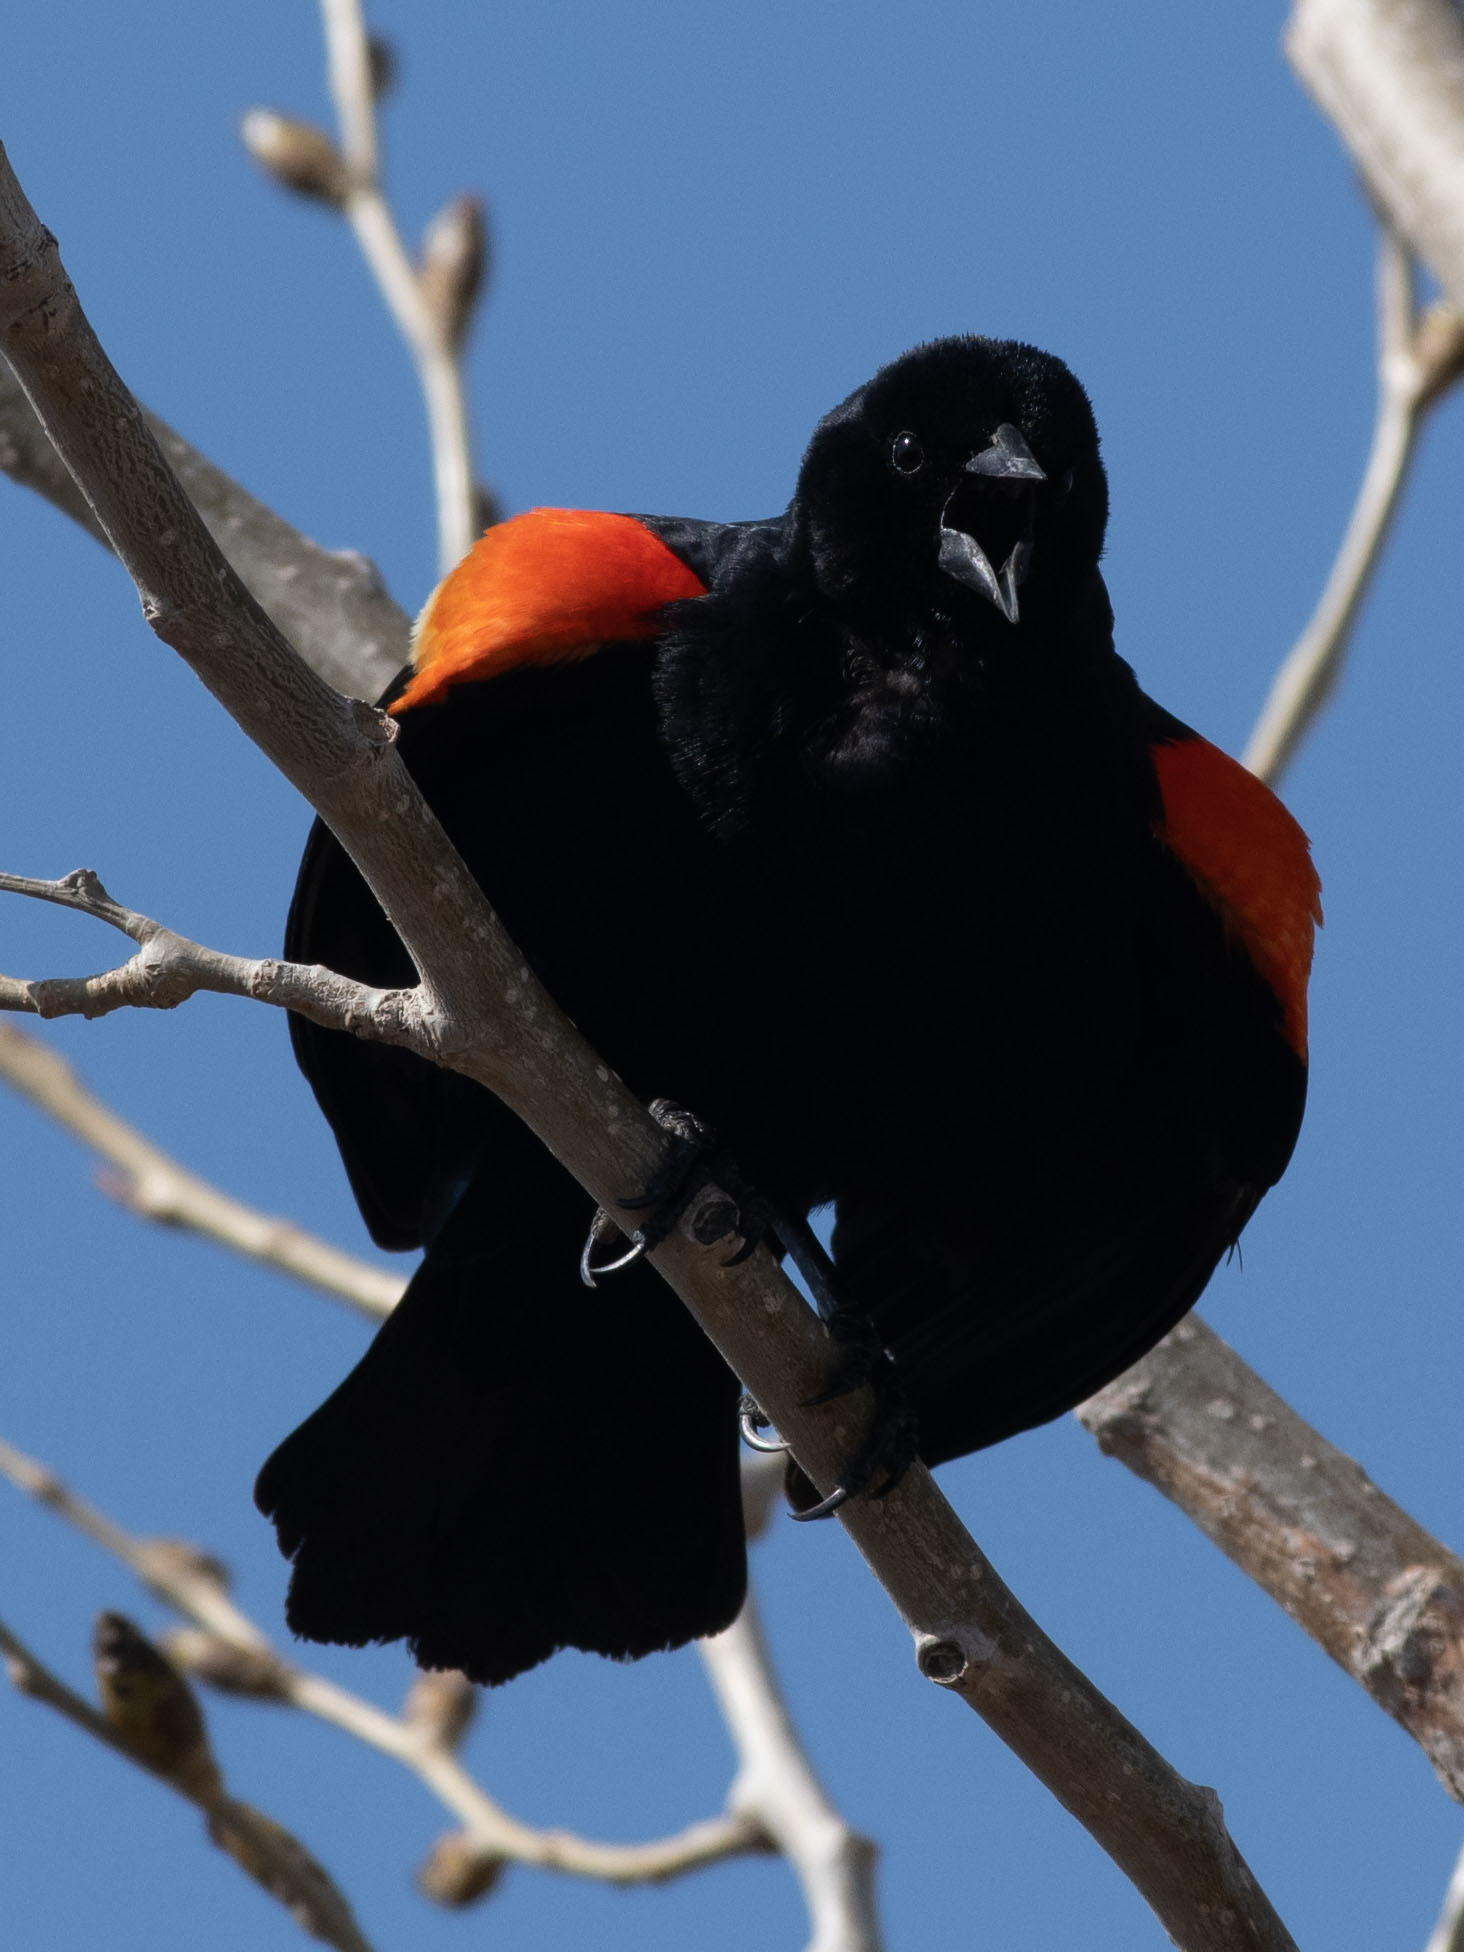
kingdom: Animalia
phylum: Chordata
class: Aves
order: Passeriformes
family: Icteridae
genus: Agelaius
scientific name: Agelaius phoeniceus
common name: Red-winged blackbird
